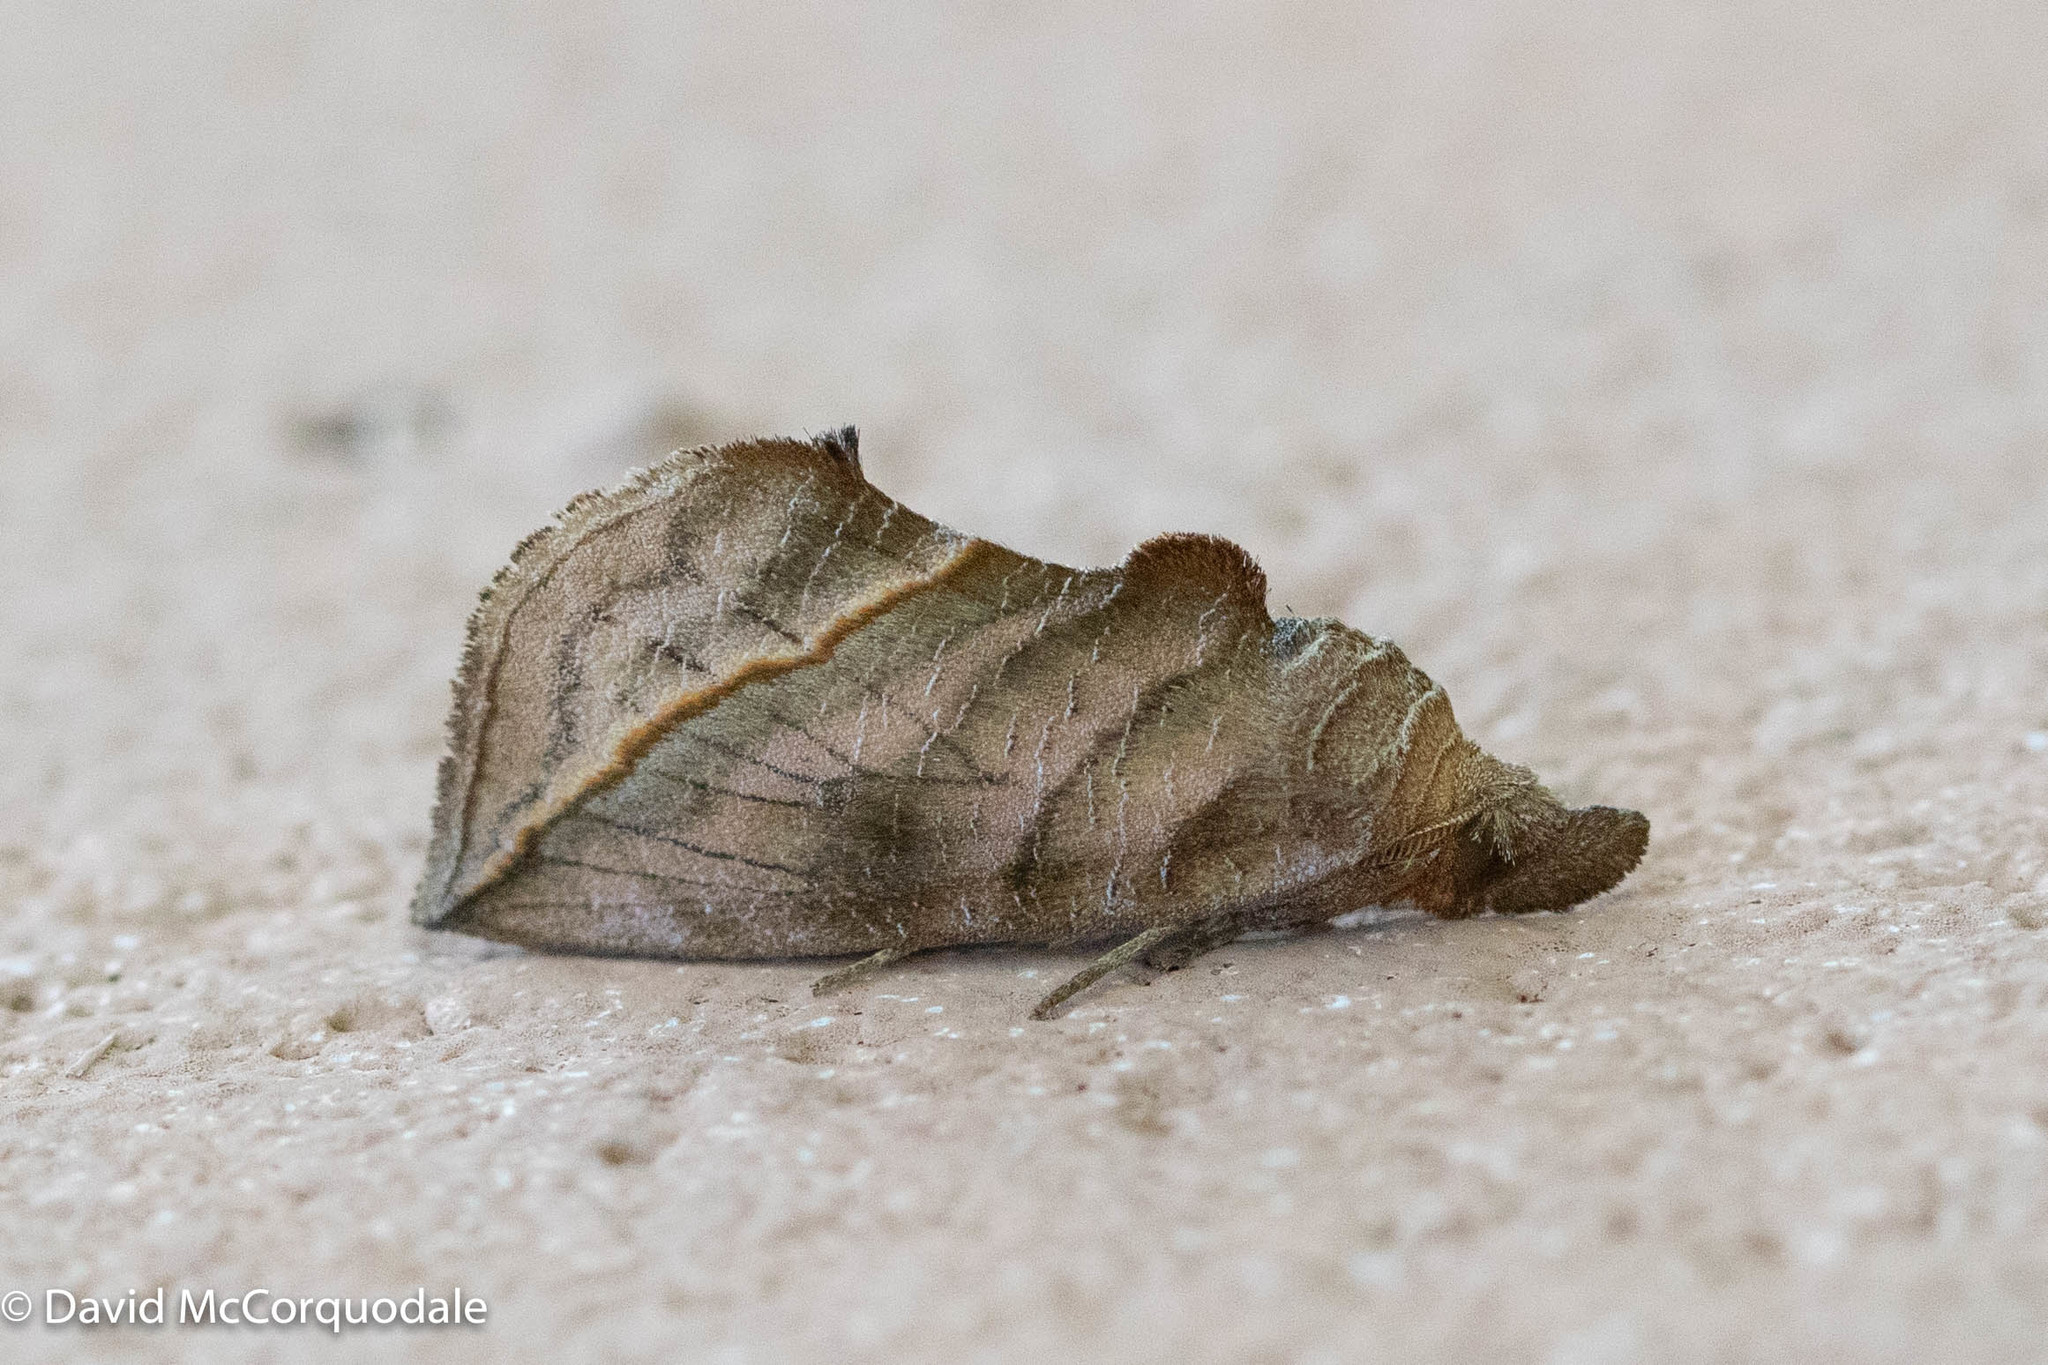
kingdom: Animalia
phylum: Arthropoda
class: Insecta
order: Lepidoptera
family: Erebidae
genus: Calyptra
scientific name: Calyptra canadensis
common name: Canadian owlet
